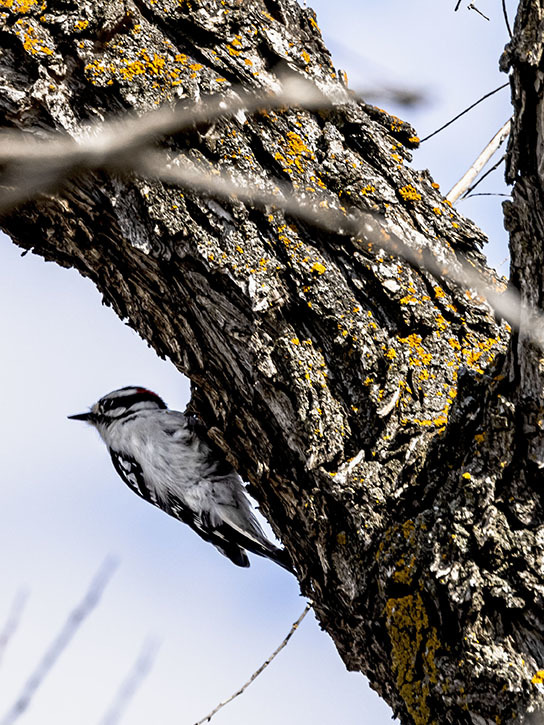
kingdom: Animalia
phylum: Chordata
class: Aves
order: Piciformes
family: Picidae
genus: Dryobates
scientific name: Dryobates pubescens
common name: Downy woodpecker
